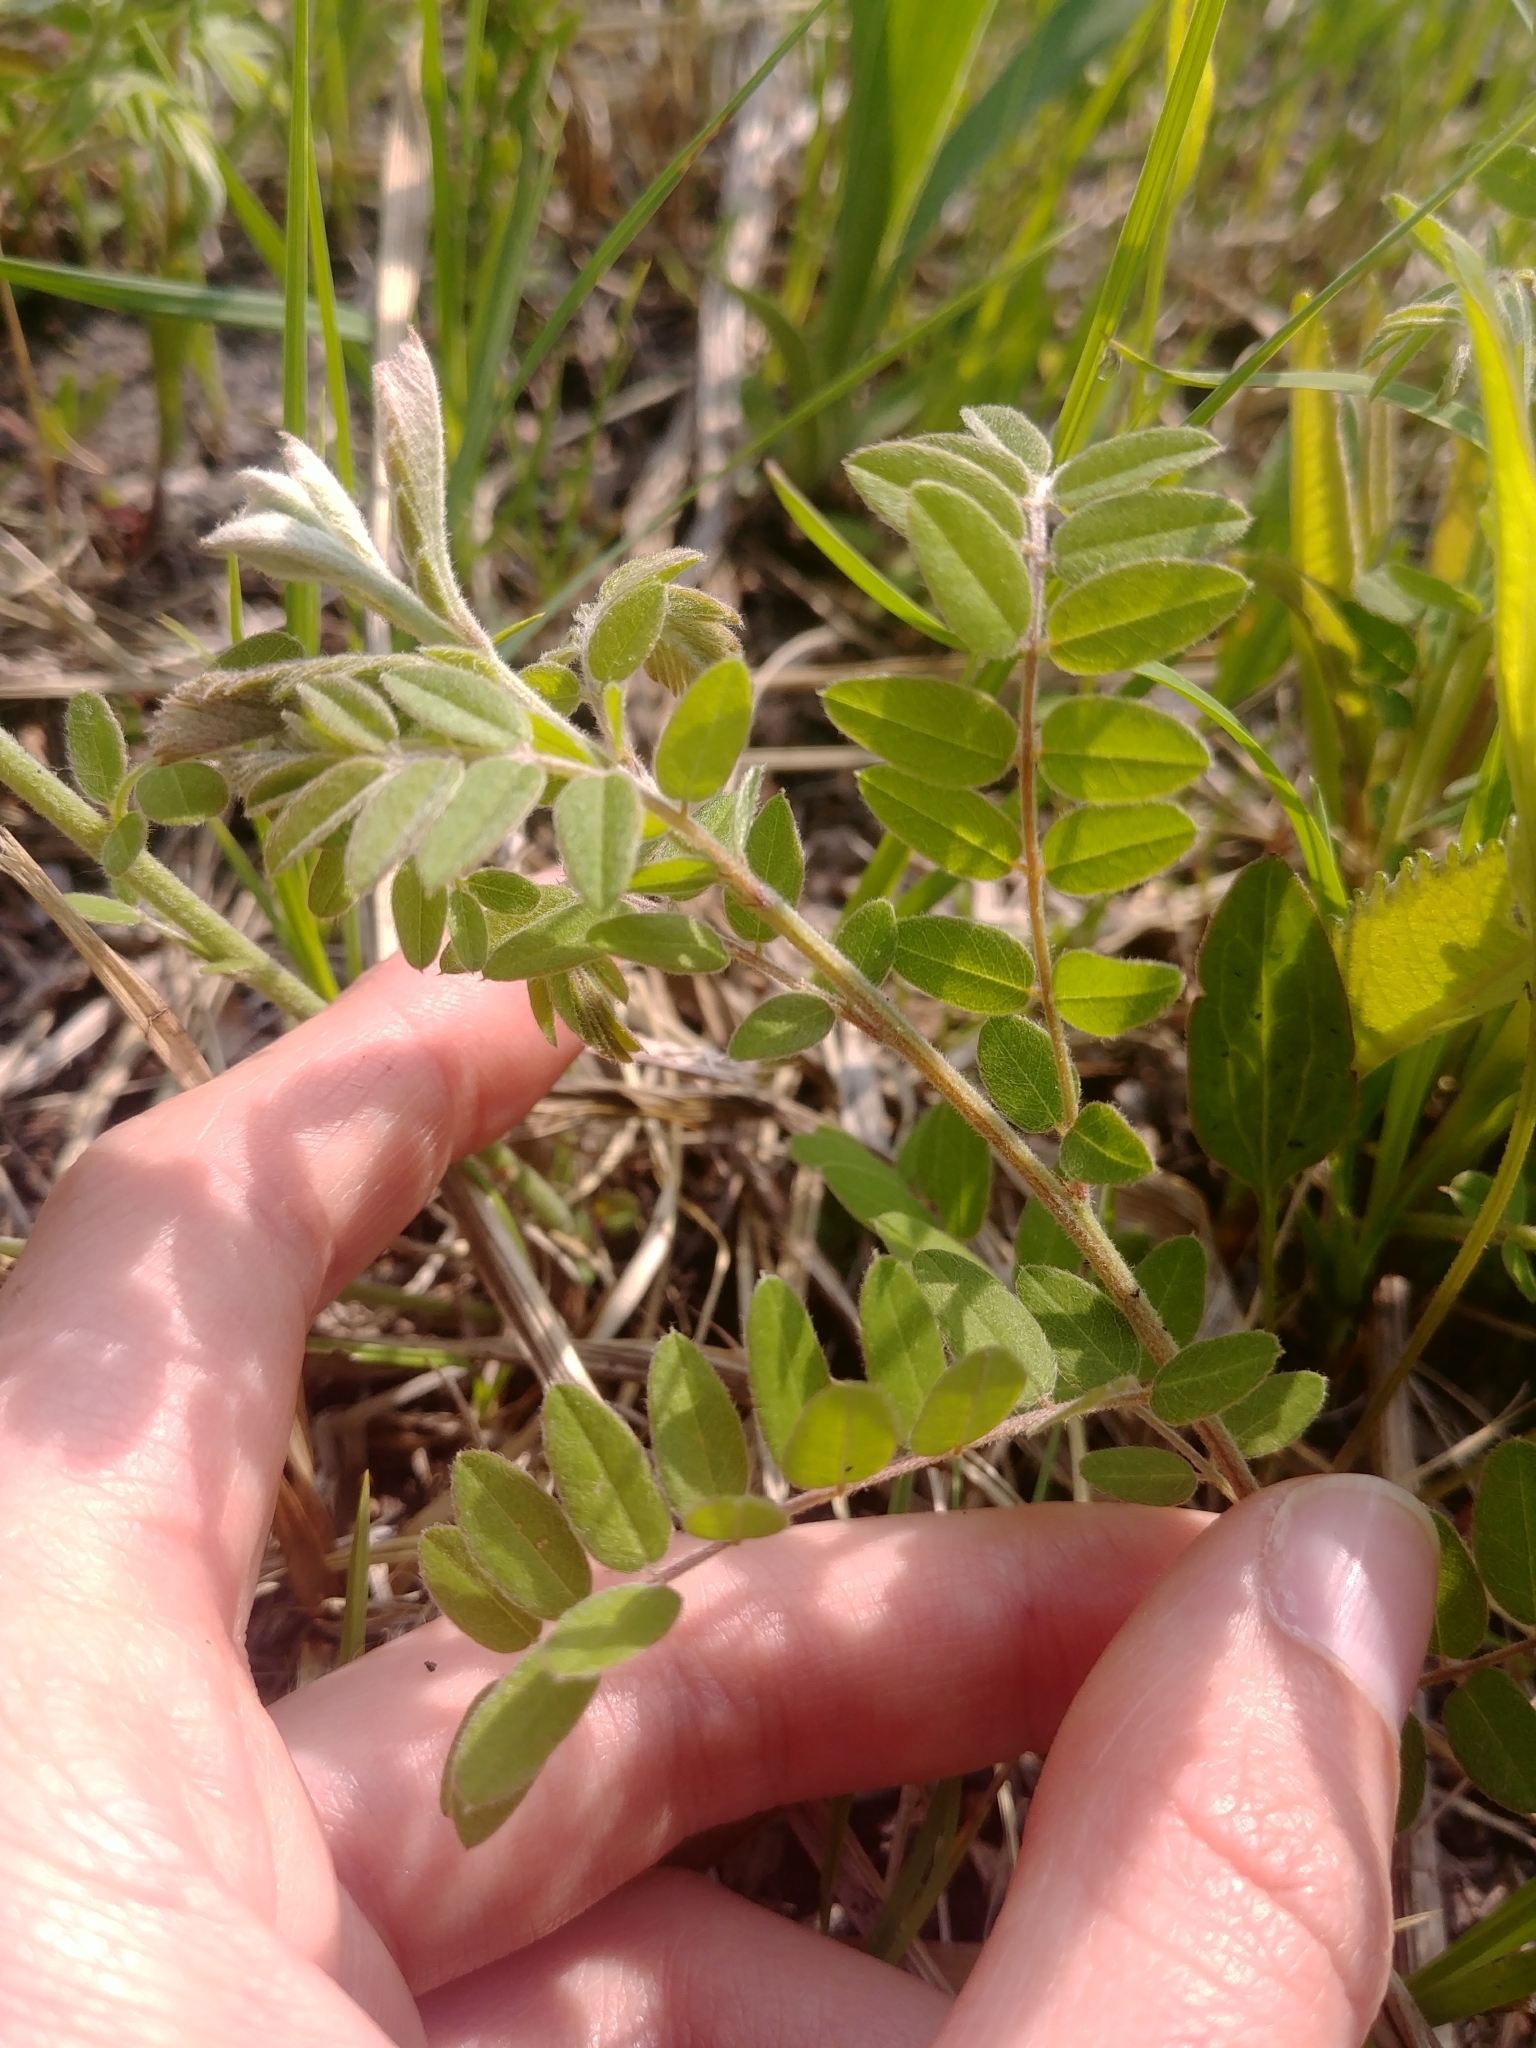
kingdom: Plantae
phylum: Tracheophyta
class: Magnoliopsida
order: Fabales
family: Fabaceae
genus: Amorpha
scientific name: Amorpha canescens
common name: Leadplant
